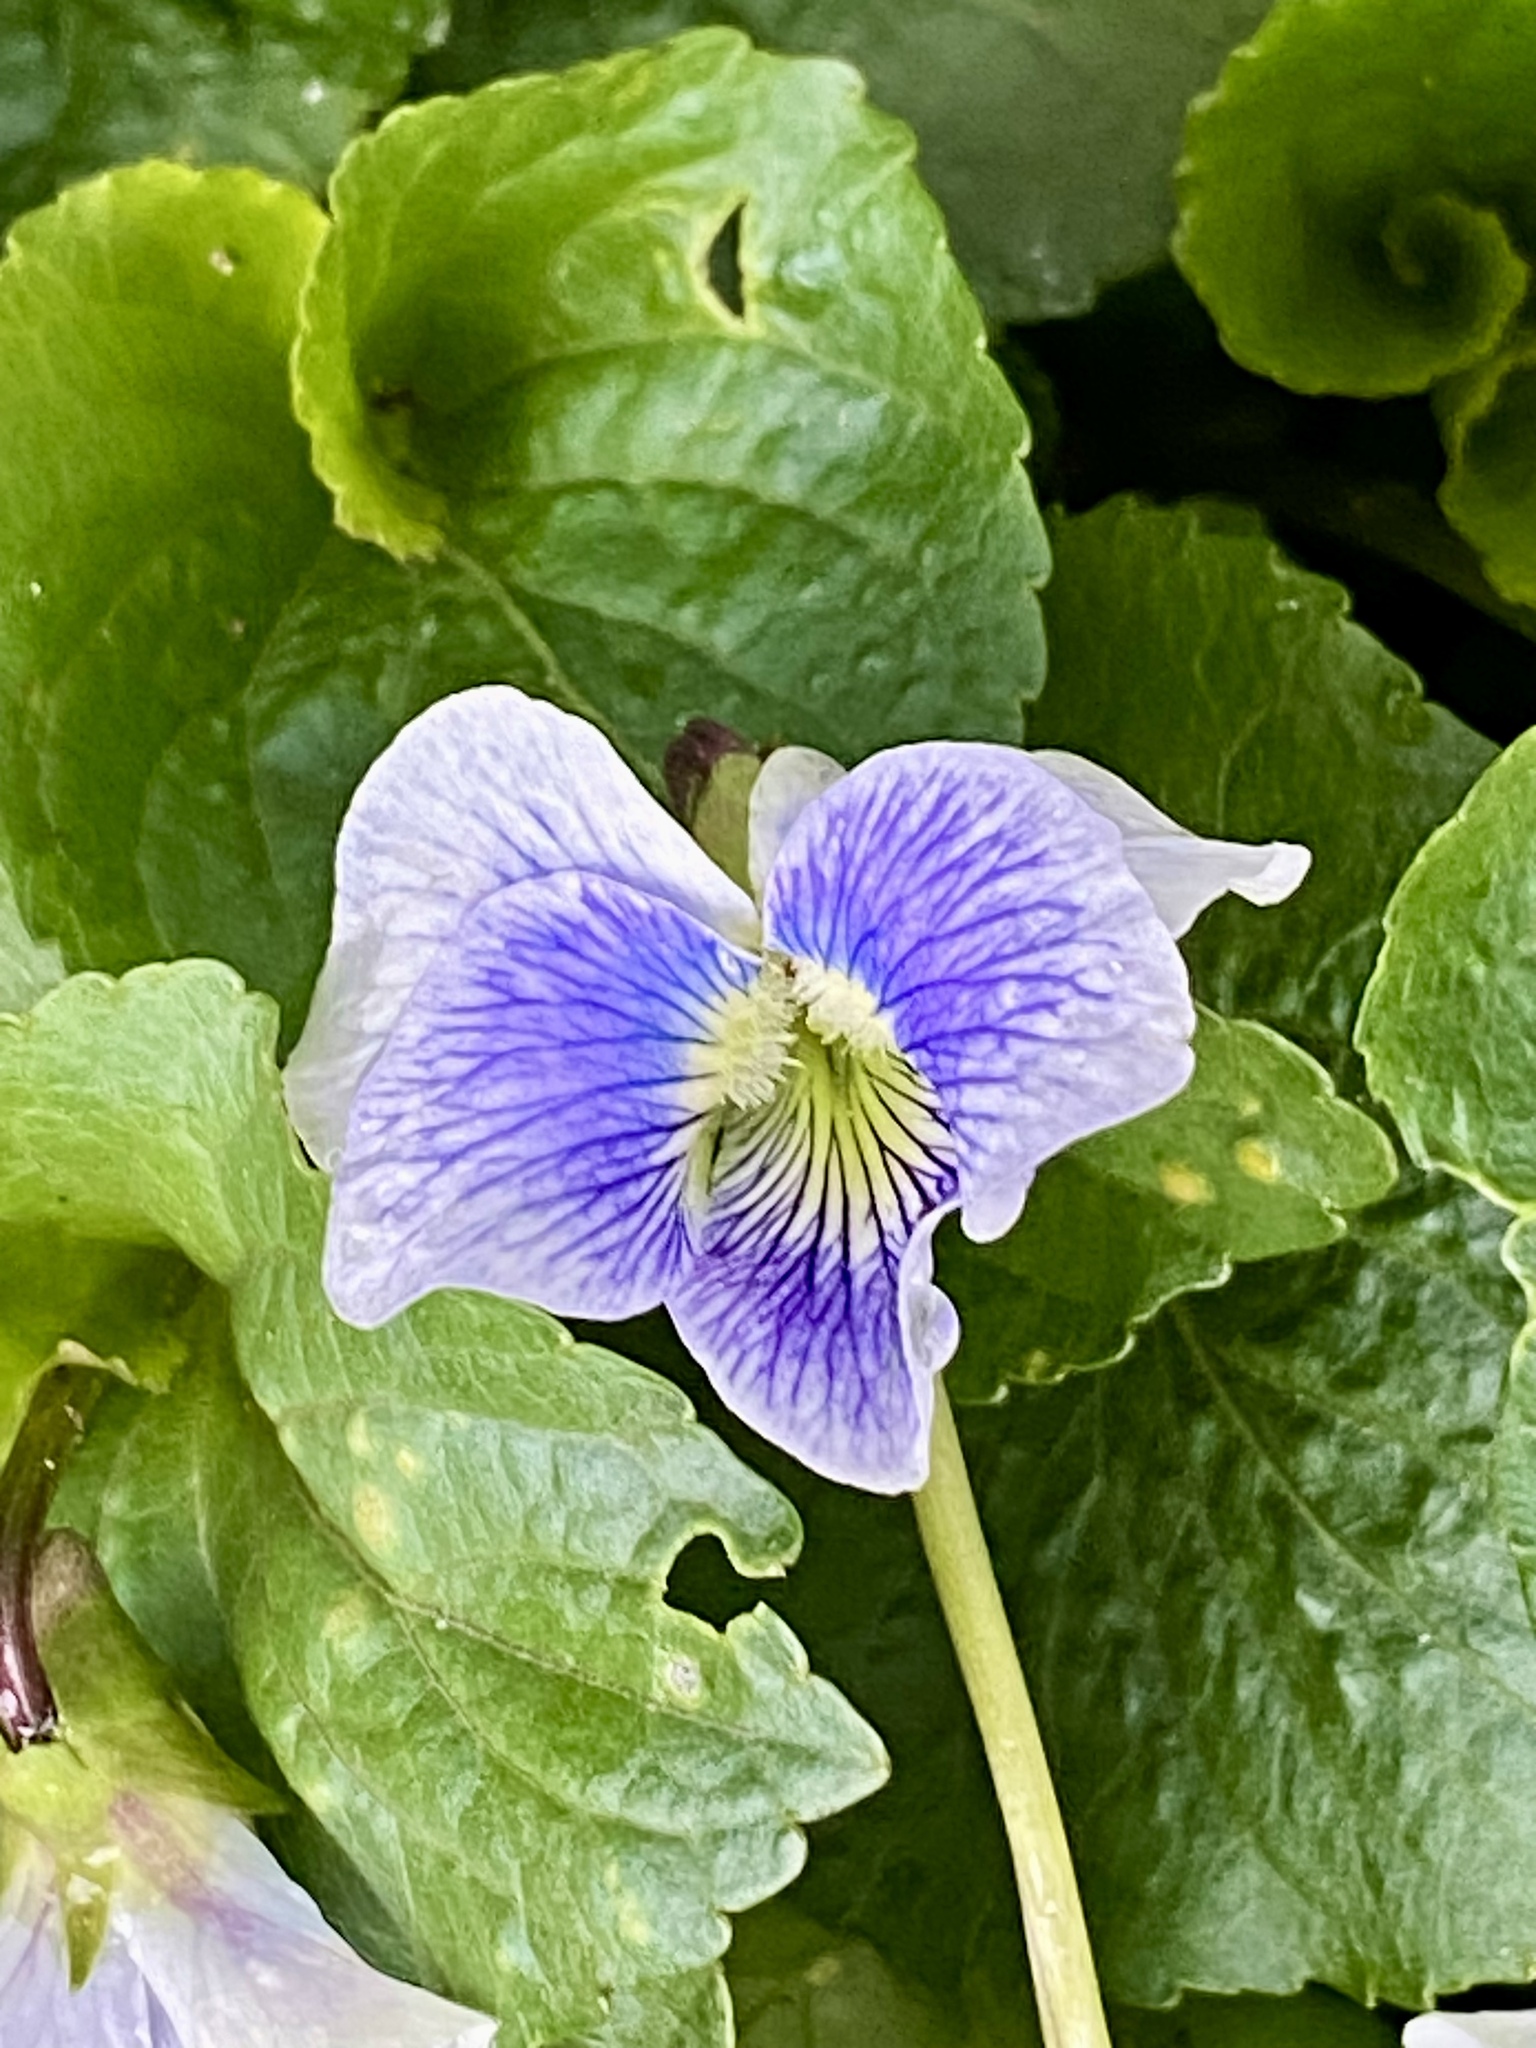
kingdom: Plantae
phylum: Tracheophyta
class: Magnoliopsida
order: Malpighiales
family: Violaceae
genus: Viola
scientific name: Viola sororia
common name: Dooryard violet
